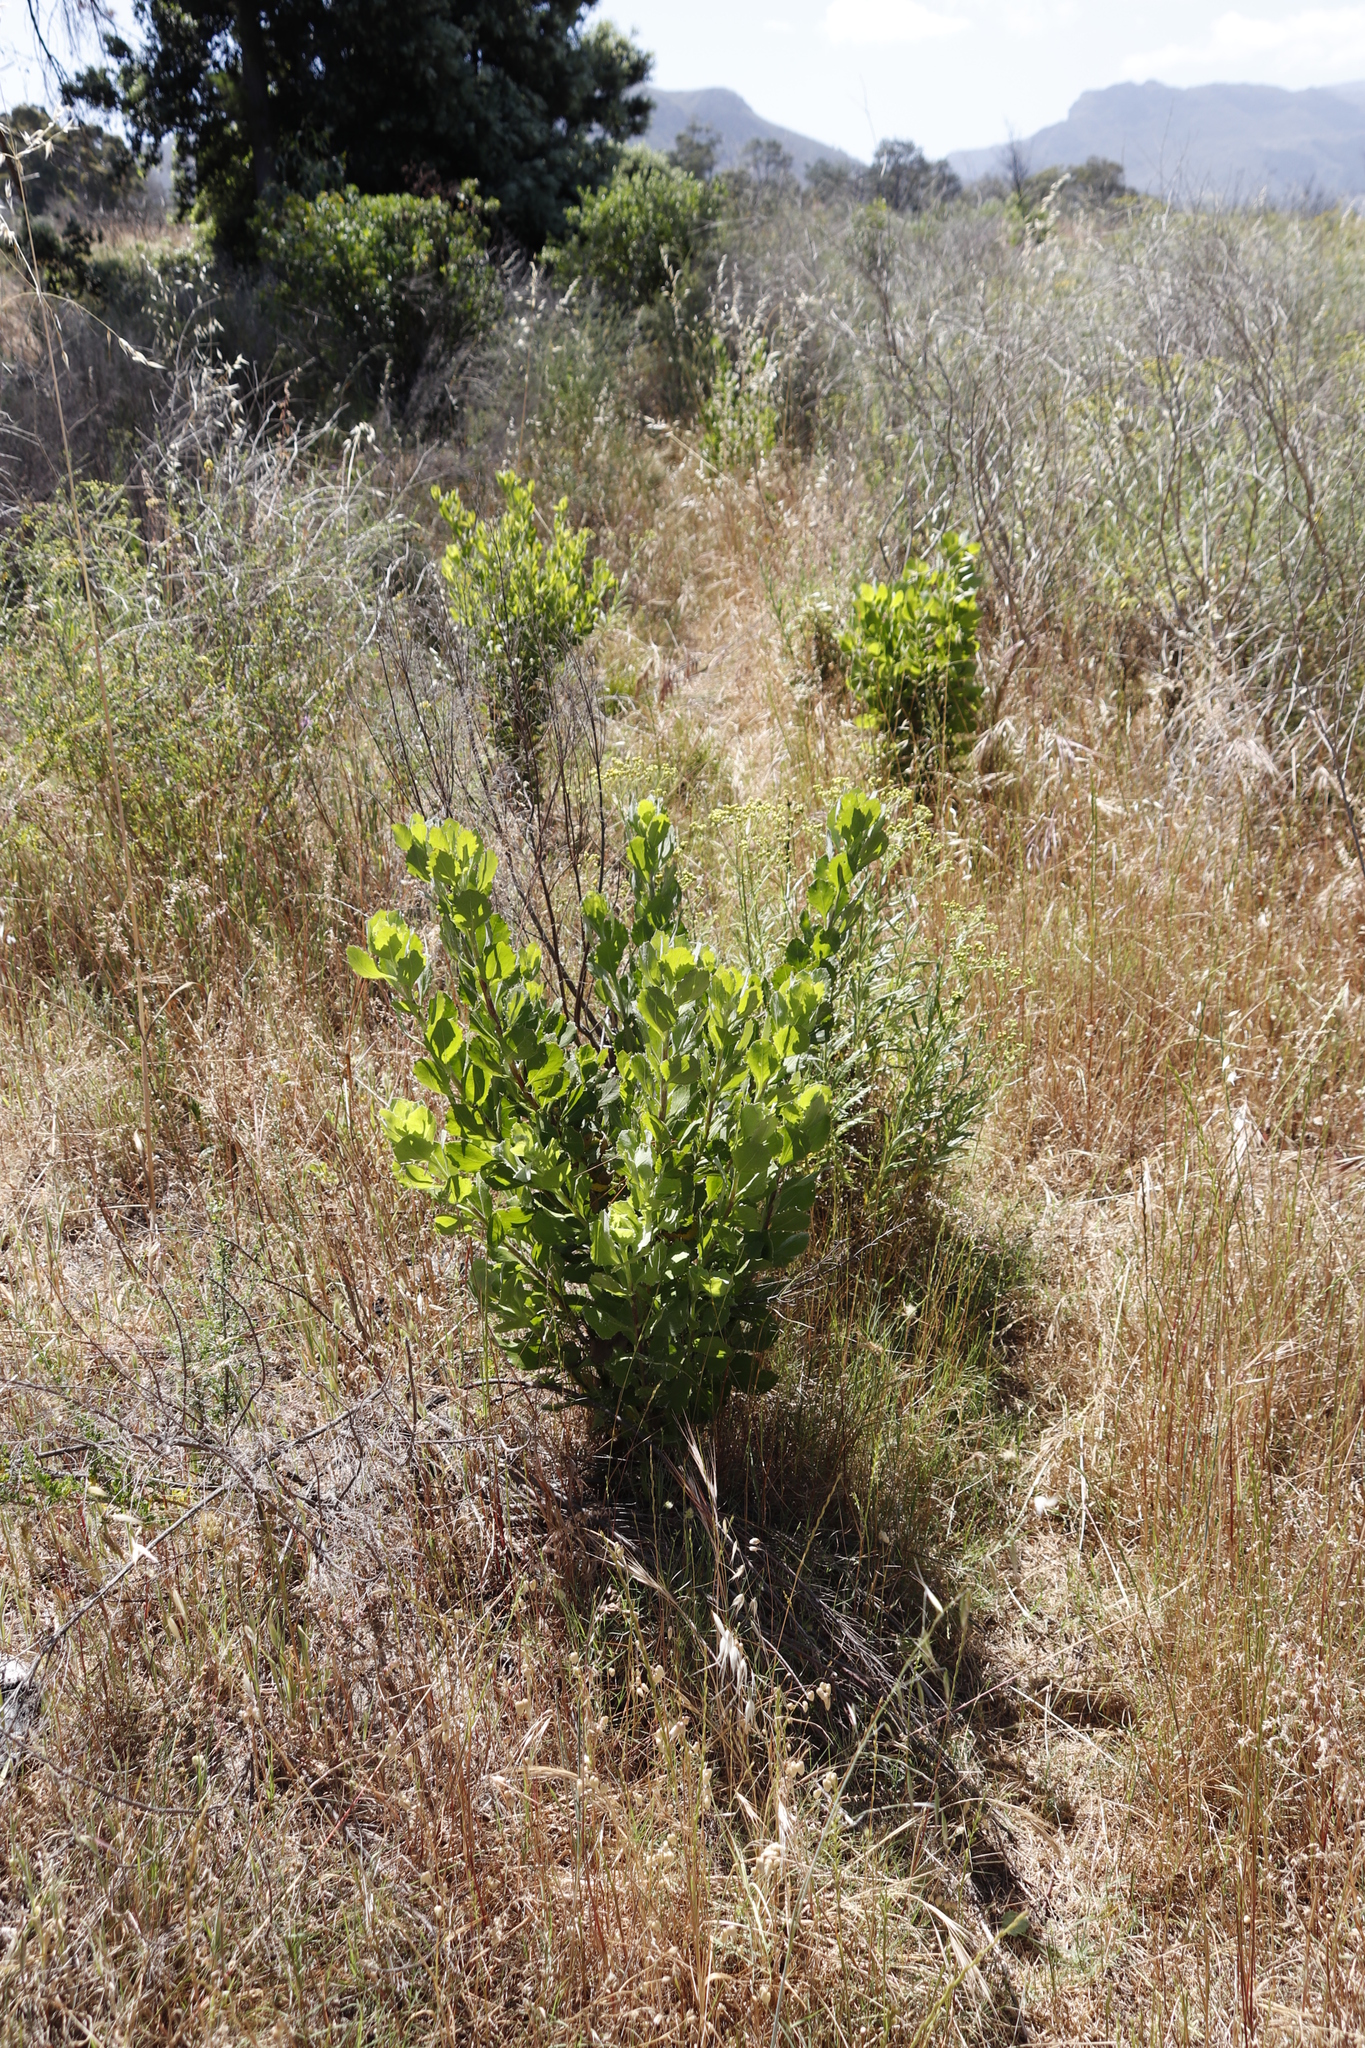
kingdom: Plantae
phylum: Tracheophyta
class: Magnoliopsida
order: Asterales
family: Asteraceae
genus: Osteospermum
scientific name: Osteospermum moniliferum
